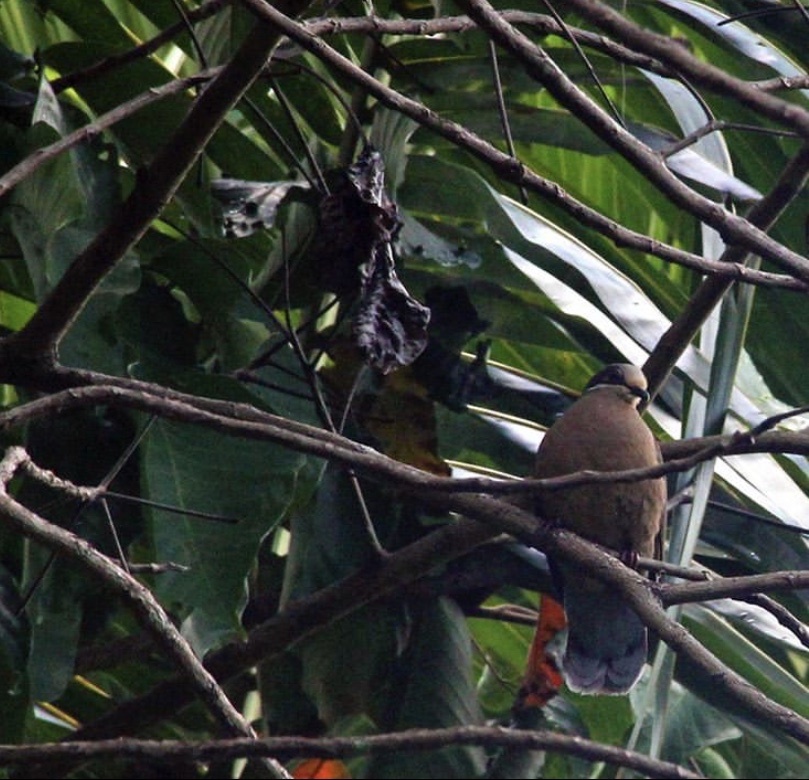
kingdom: Animalia
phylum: Chordata
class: Aves
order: Columbiformes
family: Columbidae
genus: Phapitreron
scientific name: Phapitreron leucotis
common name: White-eared brown dove
